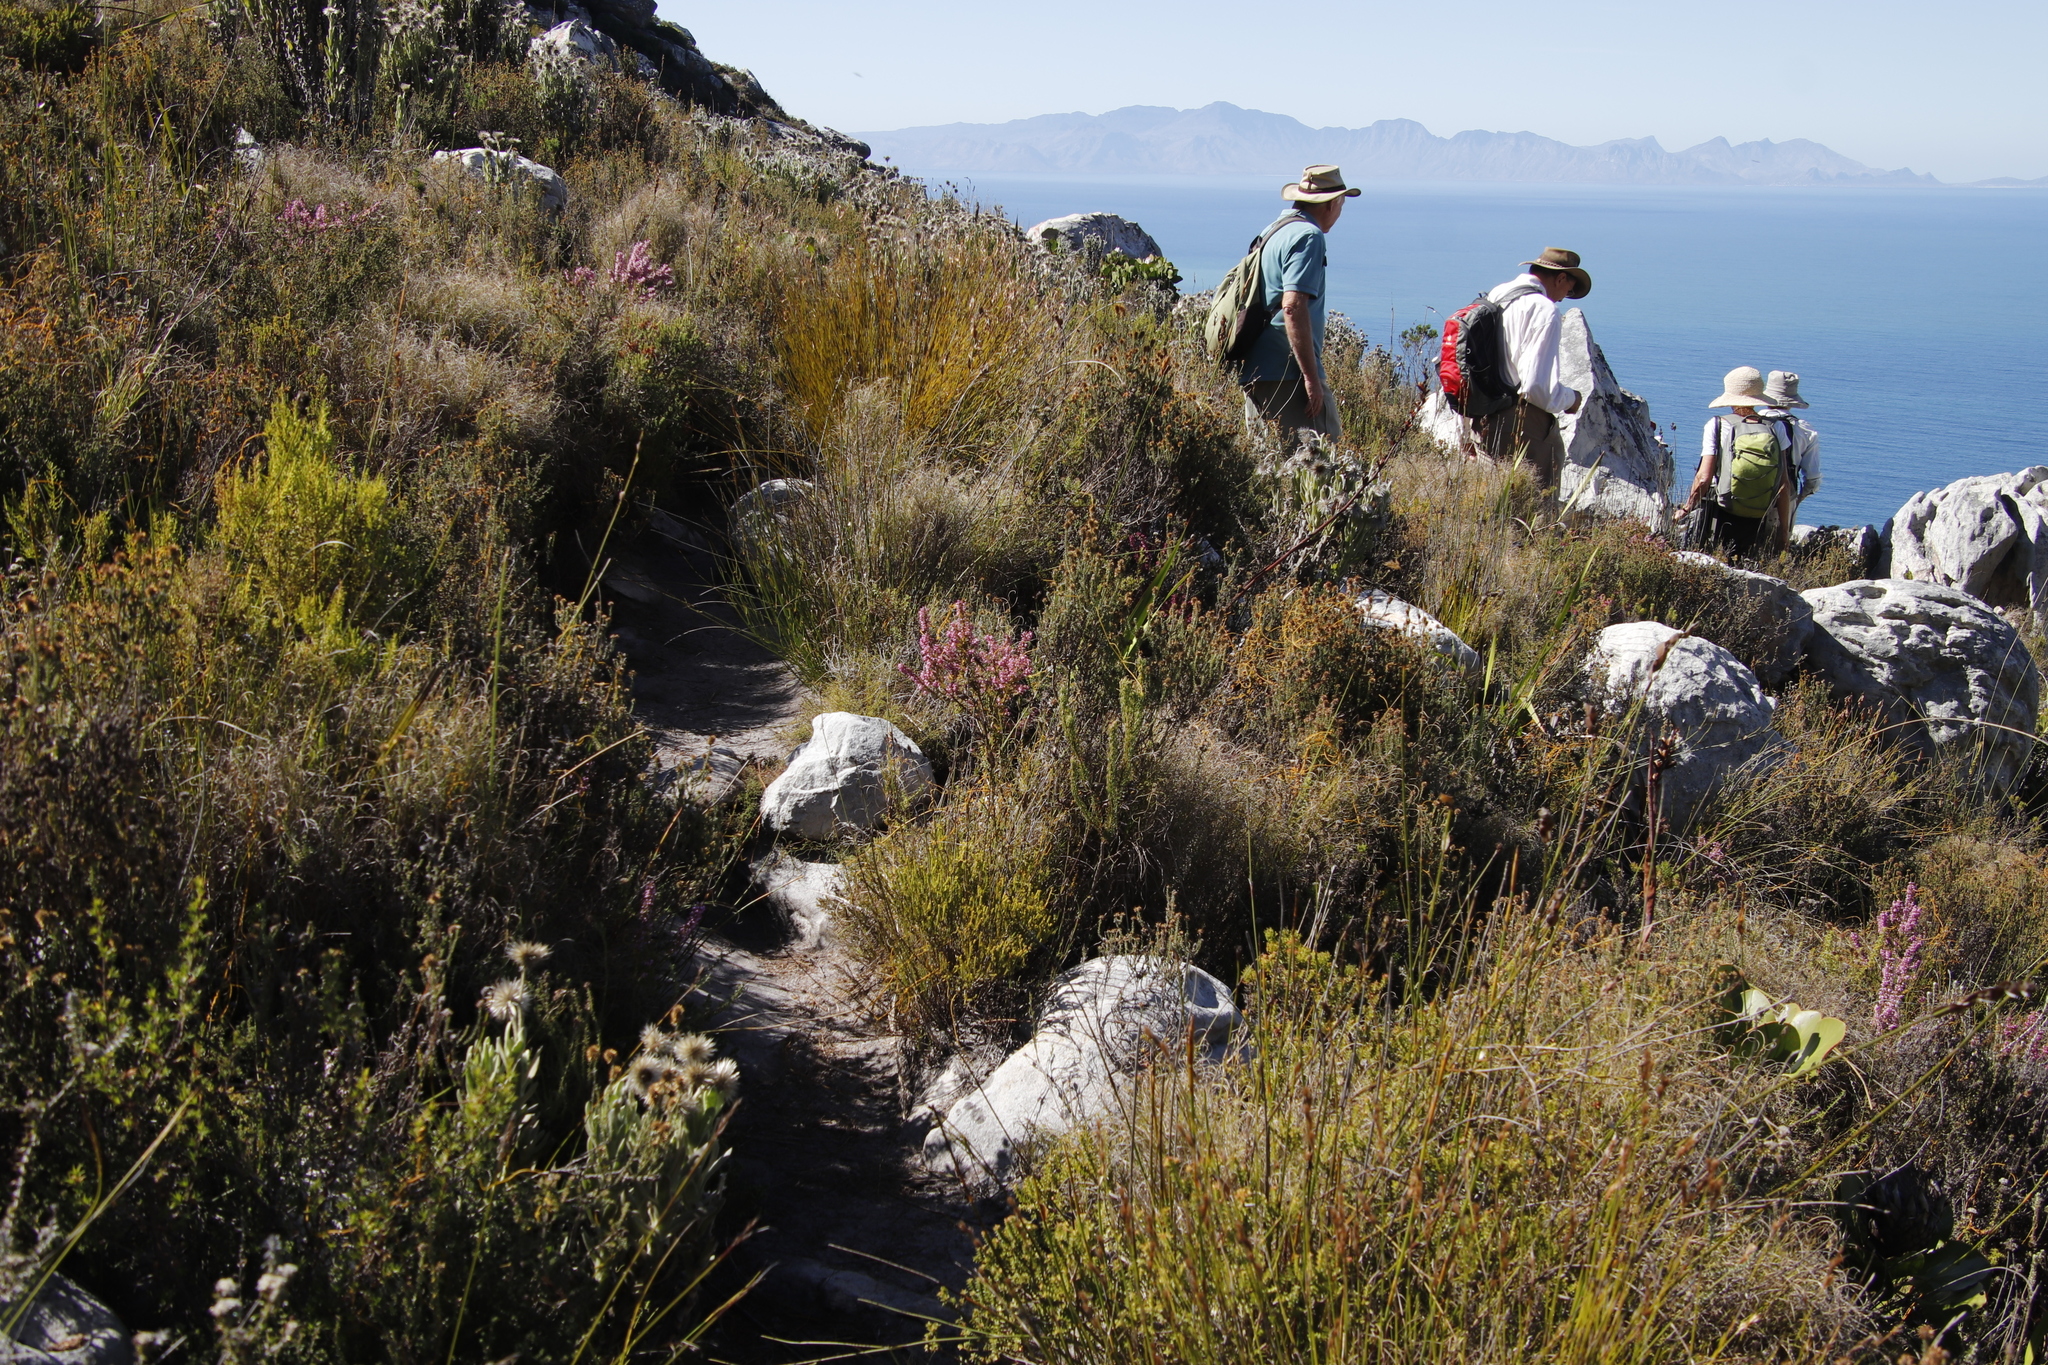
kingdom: Plantae
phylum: Tracheophyta
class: Magnoliopsida
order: Ericales
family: Ericaceae
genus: Erica
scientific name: Erica nudiflora
